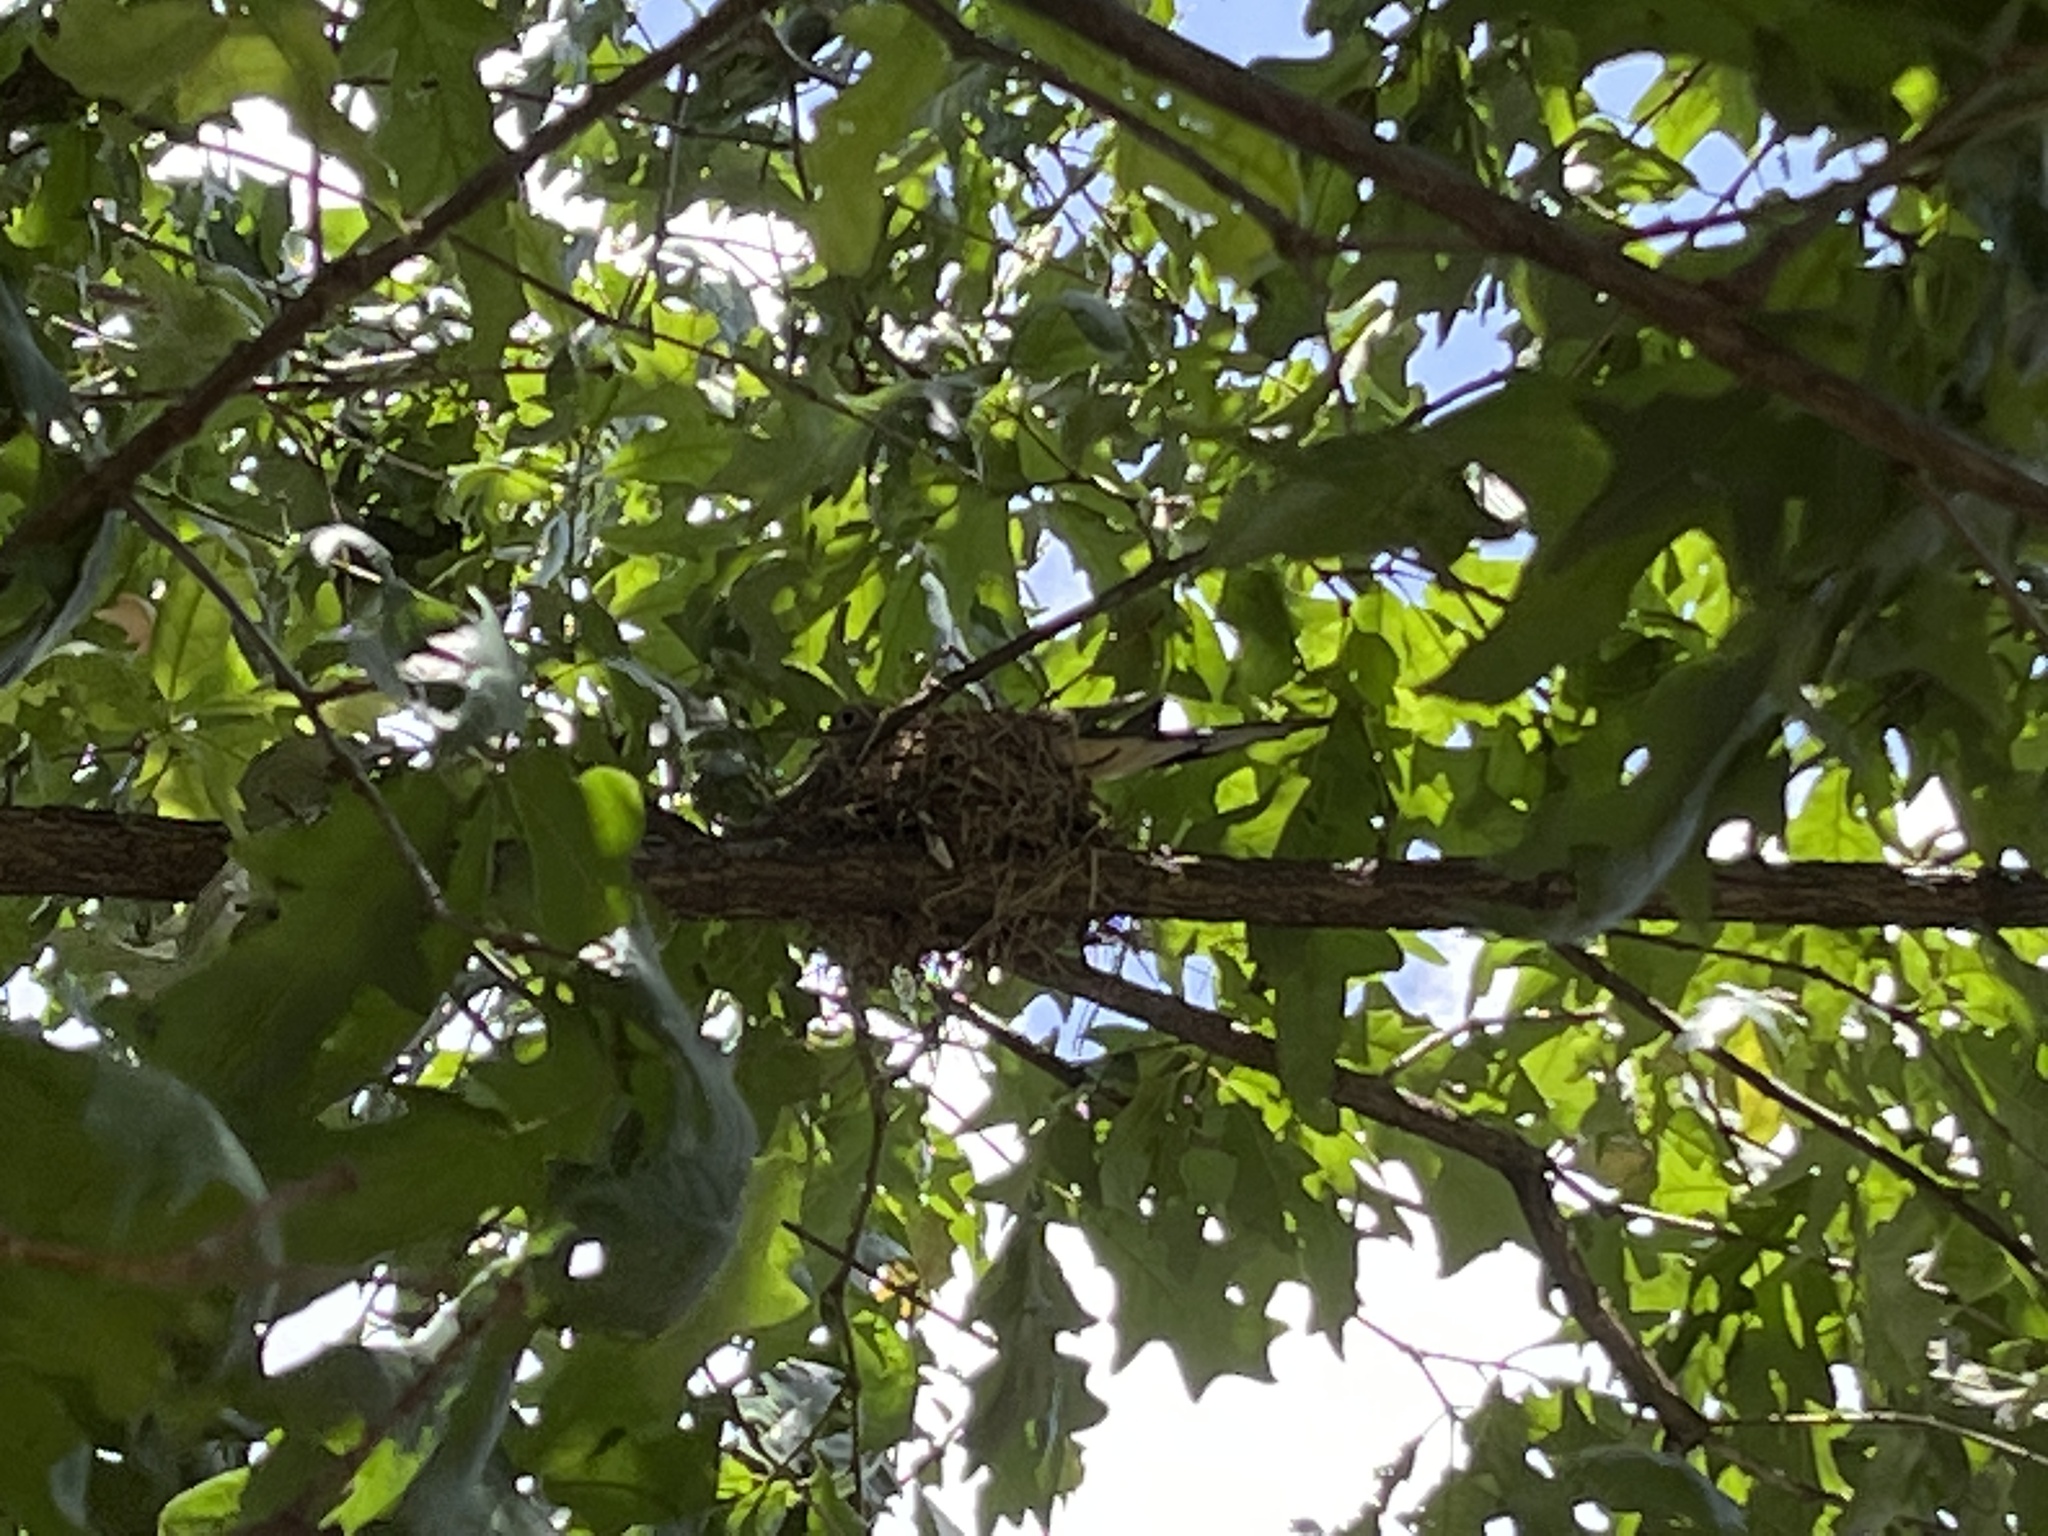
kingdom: Animalia
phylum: Chordata
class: Aves
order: Columbiformes
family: Columbidae
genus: Zenaida
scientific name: Zenaida macroura
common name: Mourning dove
